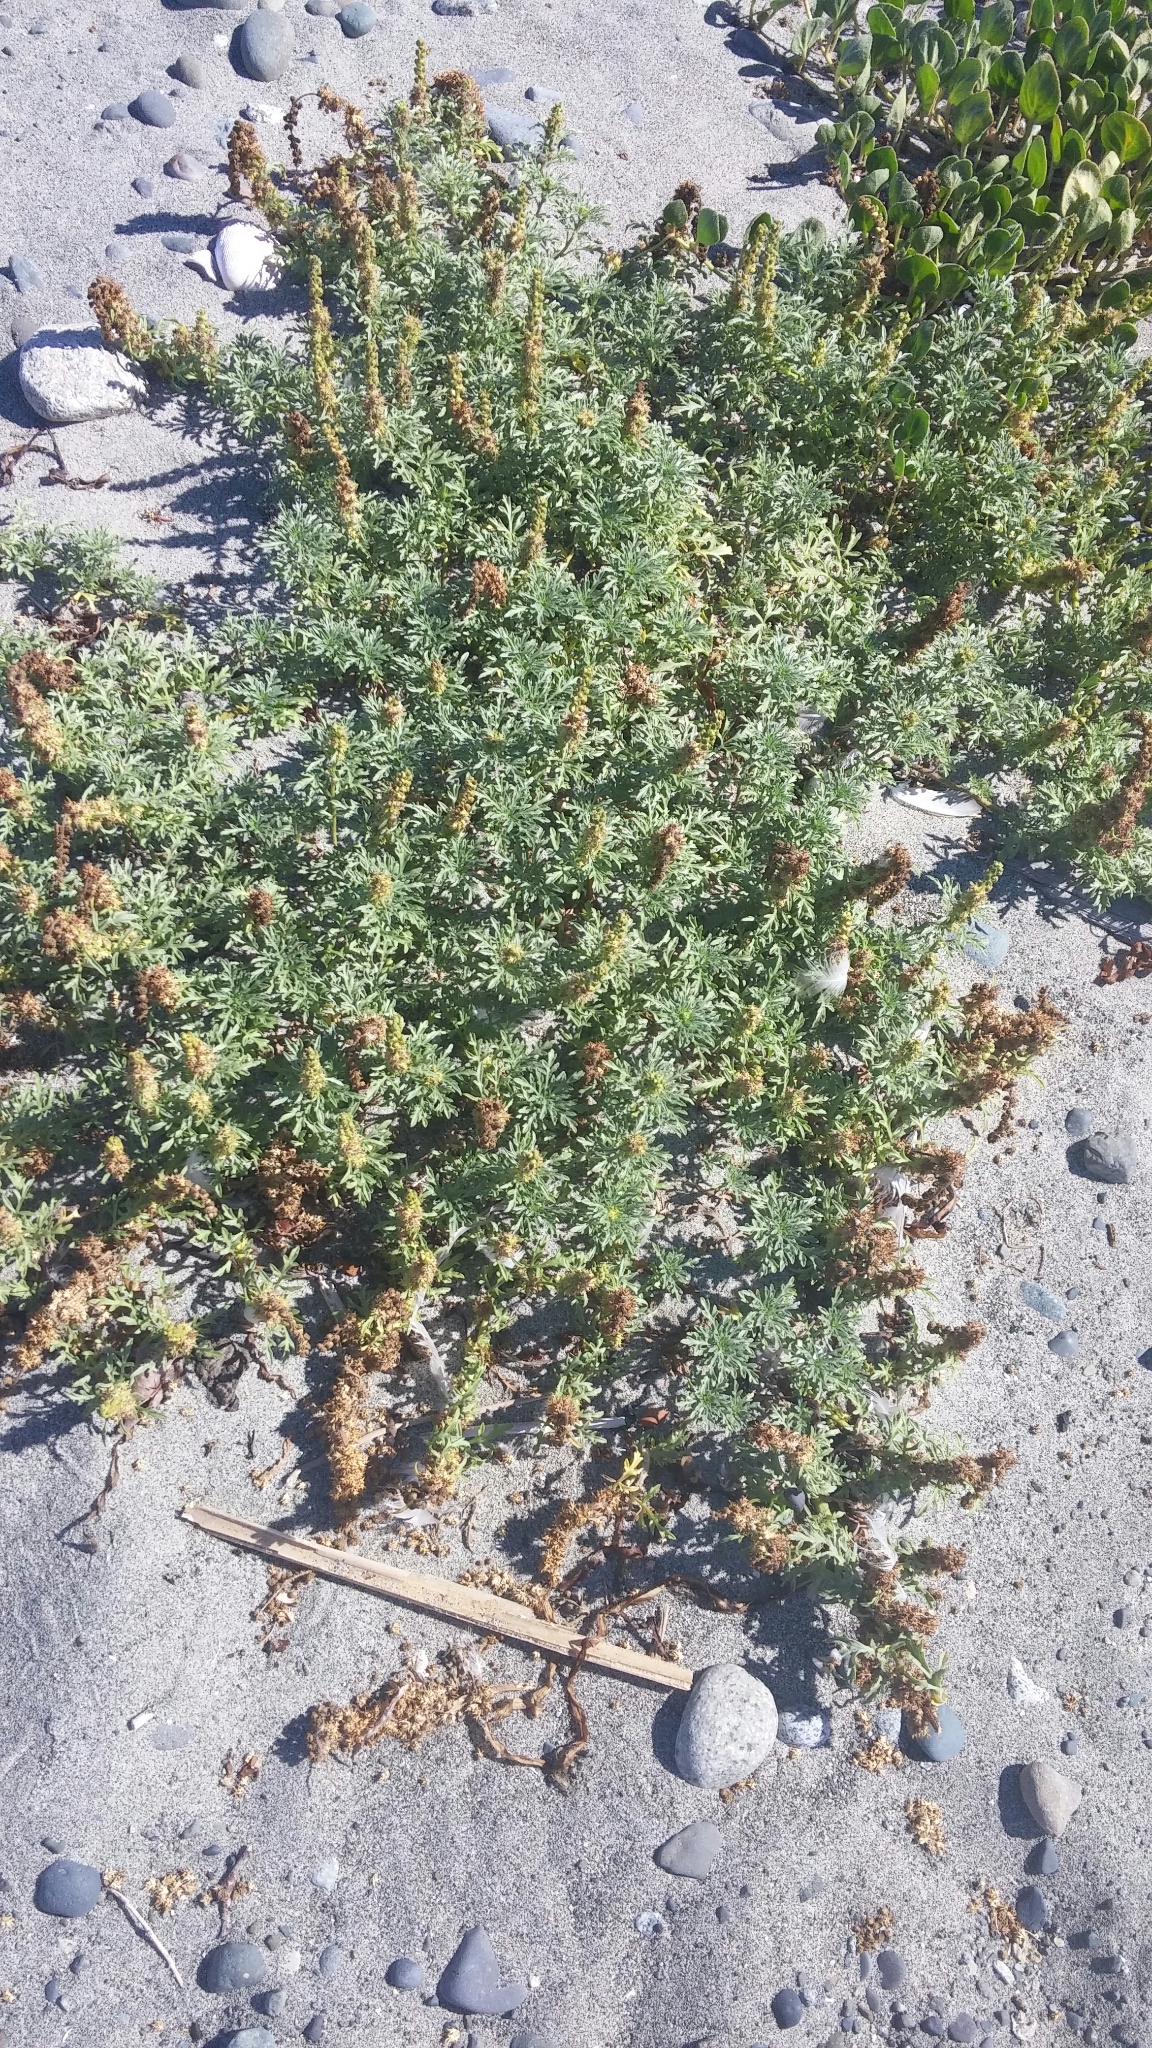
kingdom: Plantae
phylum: Tracheophyta
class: Magnoliopsida
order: Asterales
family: Asteraceae
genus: Ambrosia
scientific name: Ambrosia chamissonis
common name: Beachbur
